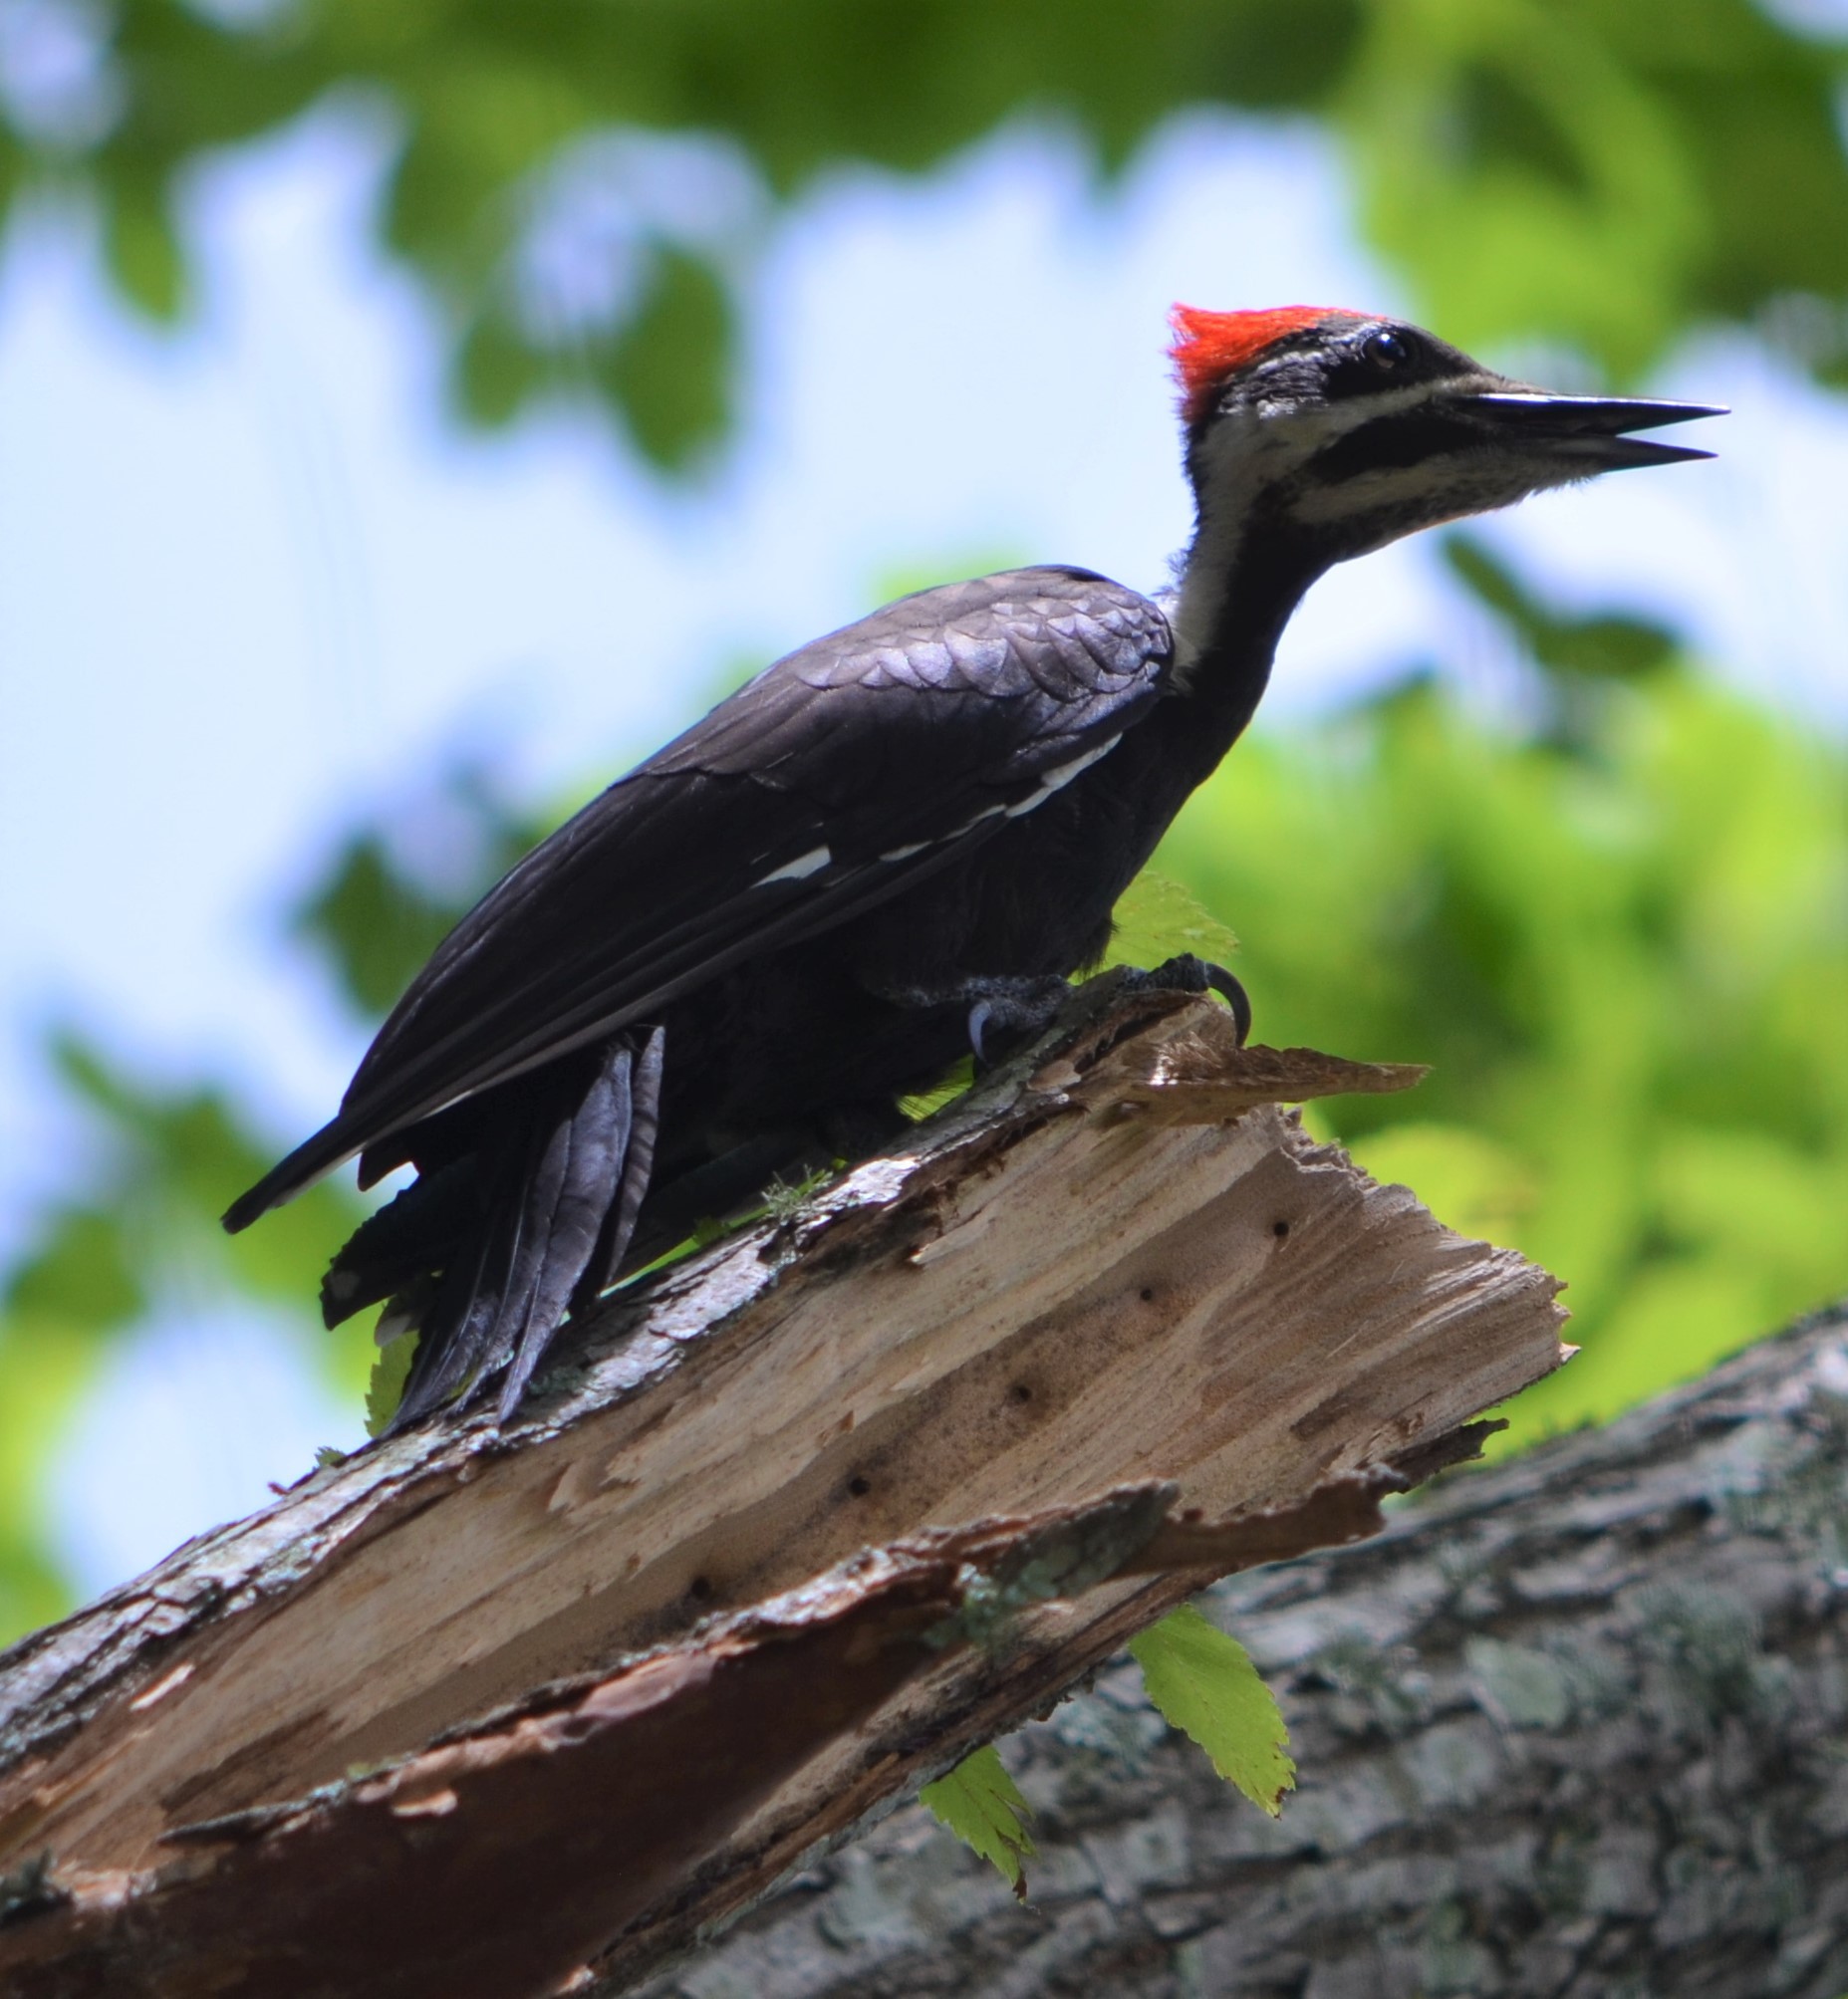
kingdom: Animalia
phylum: Chordata
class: Aves
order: Piciformes
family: Picidae
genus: Dryocopus
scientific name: Dryocopus pileatus
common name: Pileated woodpecker
